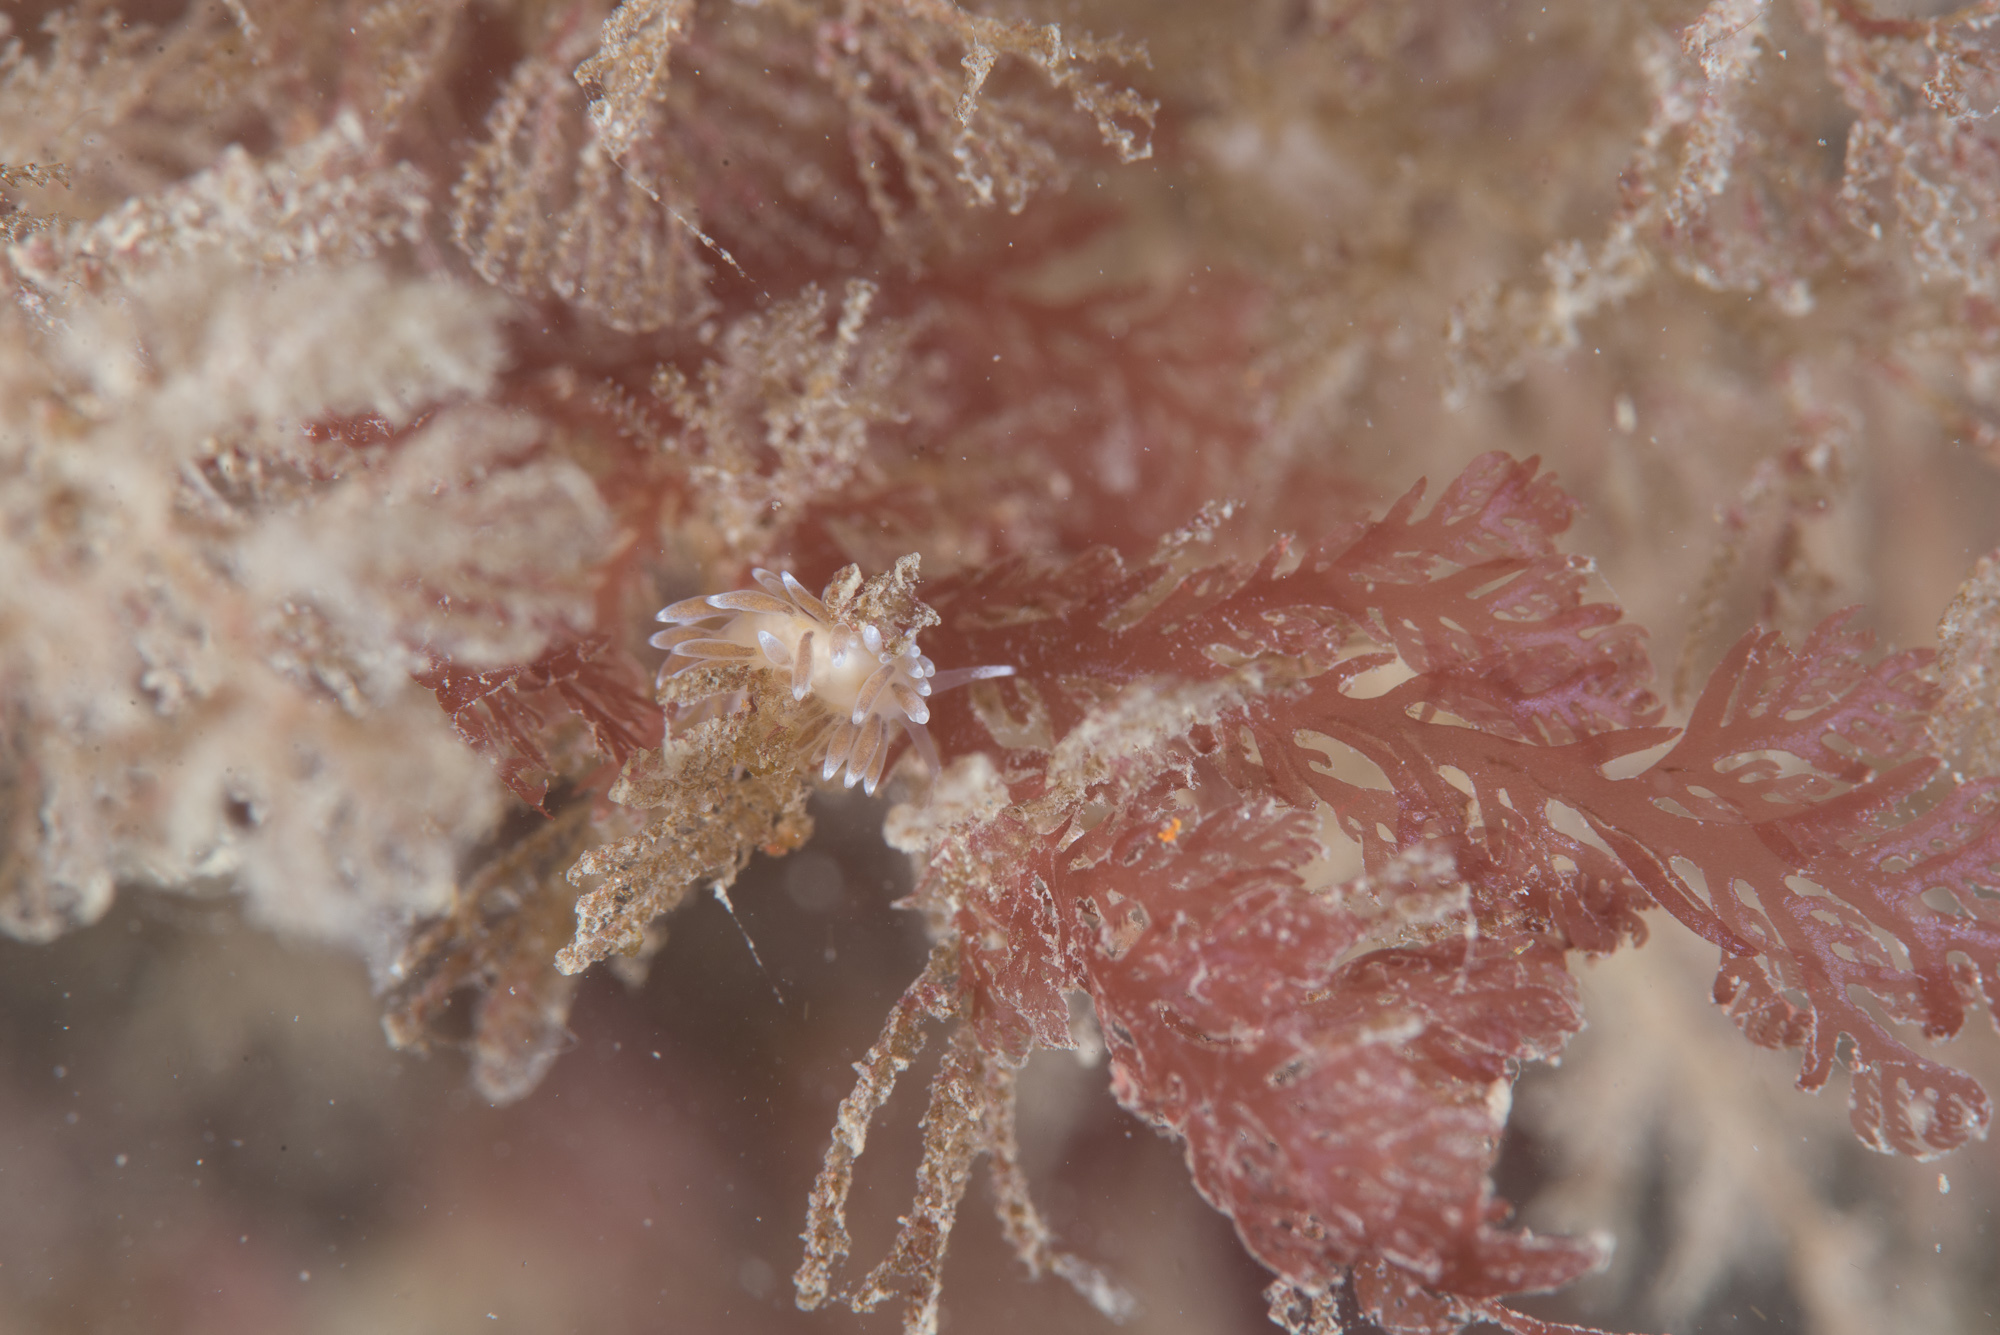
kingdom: Animalia
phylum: Mollusca
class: Gastropoda
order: Nudibranchia
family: Cuthonellidae
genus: Cuthonella
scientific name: Cuthonella concinna
